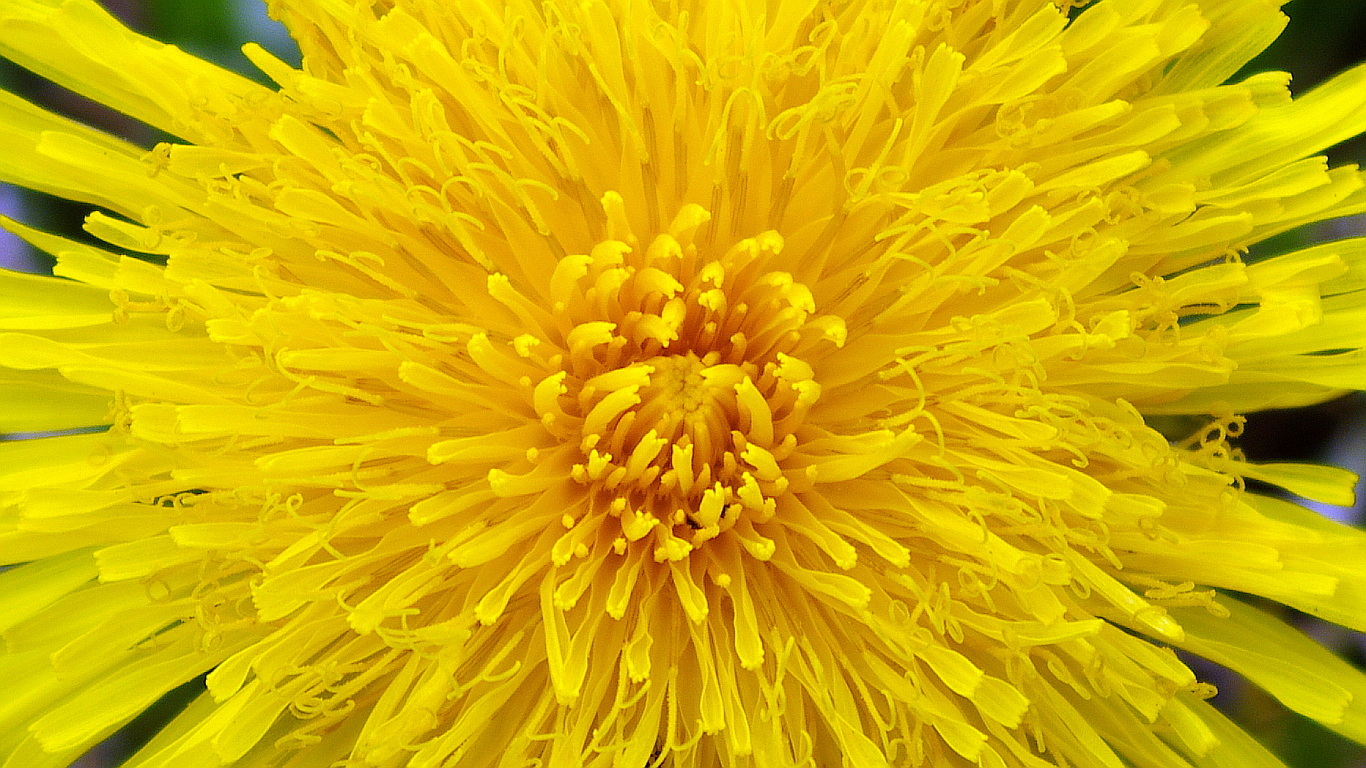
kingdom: Plantae
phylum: Tracheophyta
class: Magnoliopsida
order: Asterales
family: Asteraceae
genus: Taraxacum
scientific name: Taraxacum officinale
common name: Common dandelion
